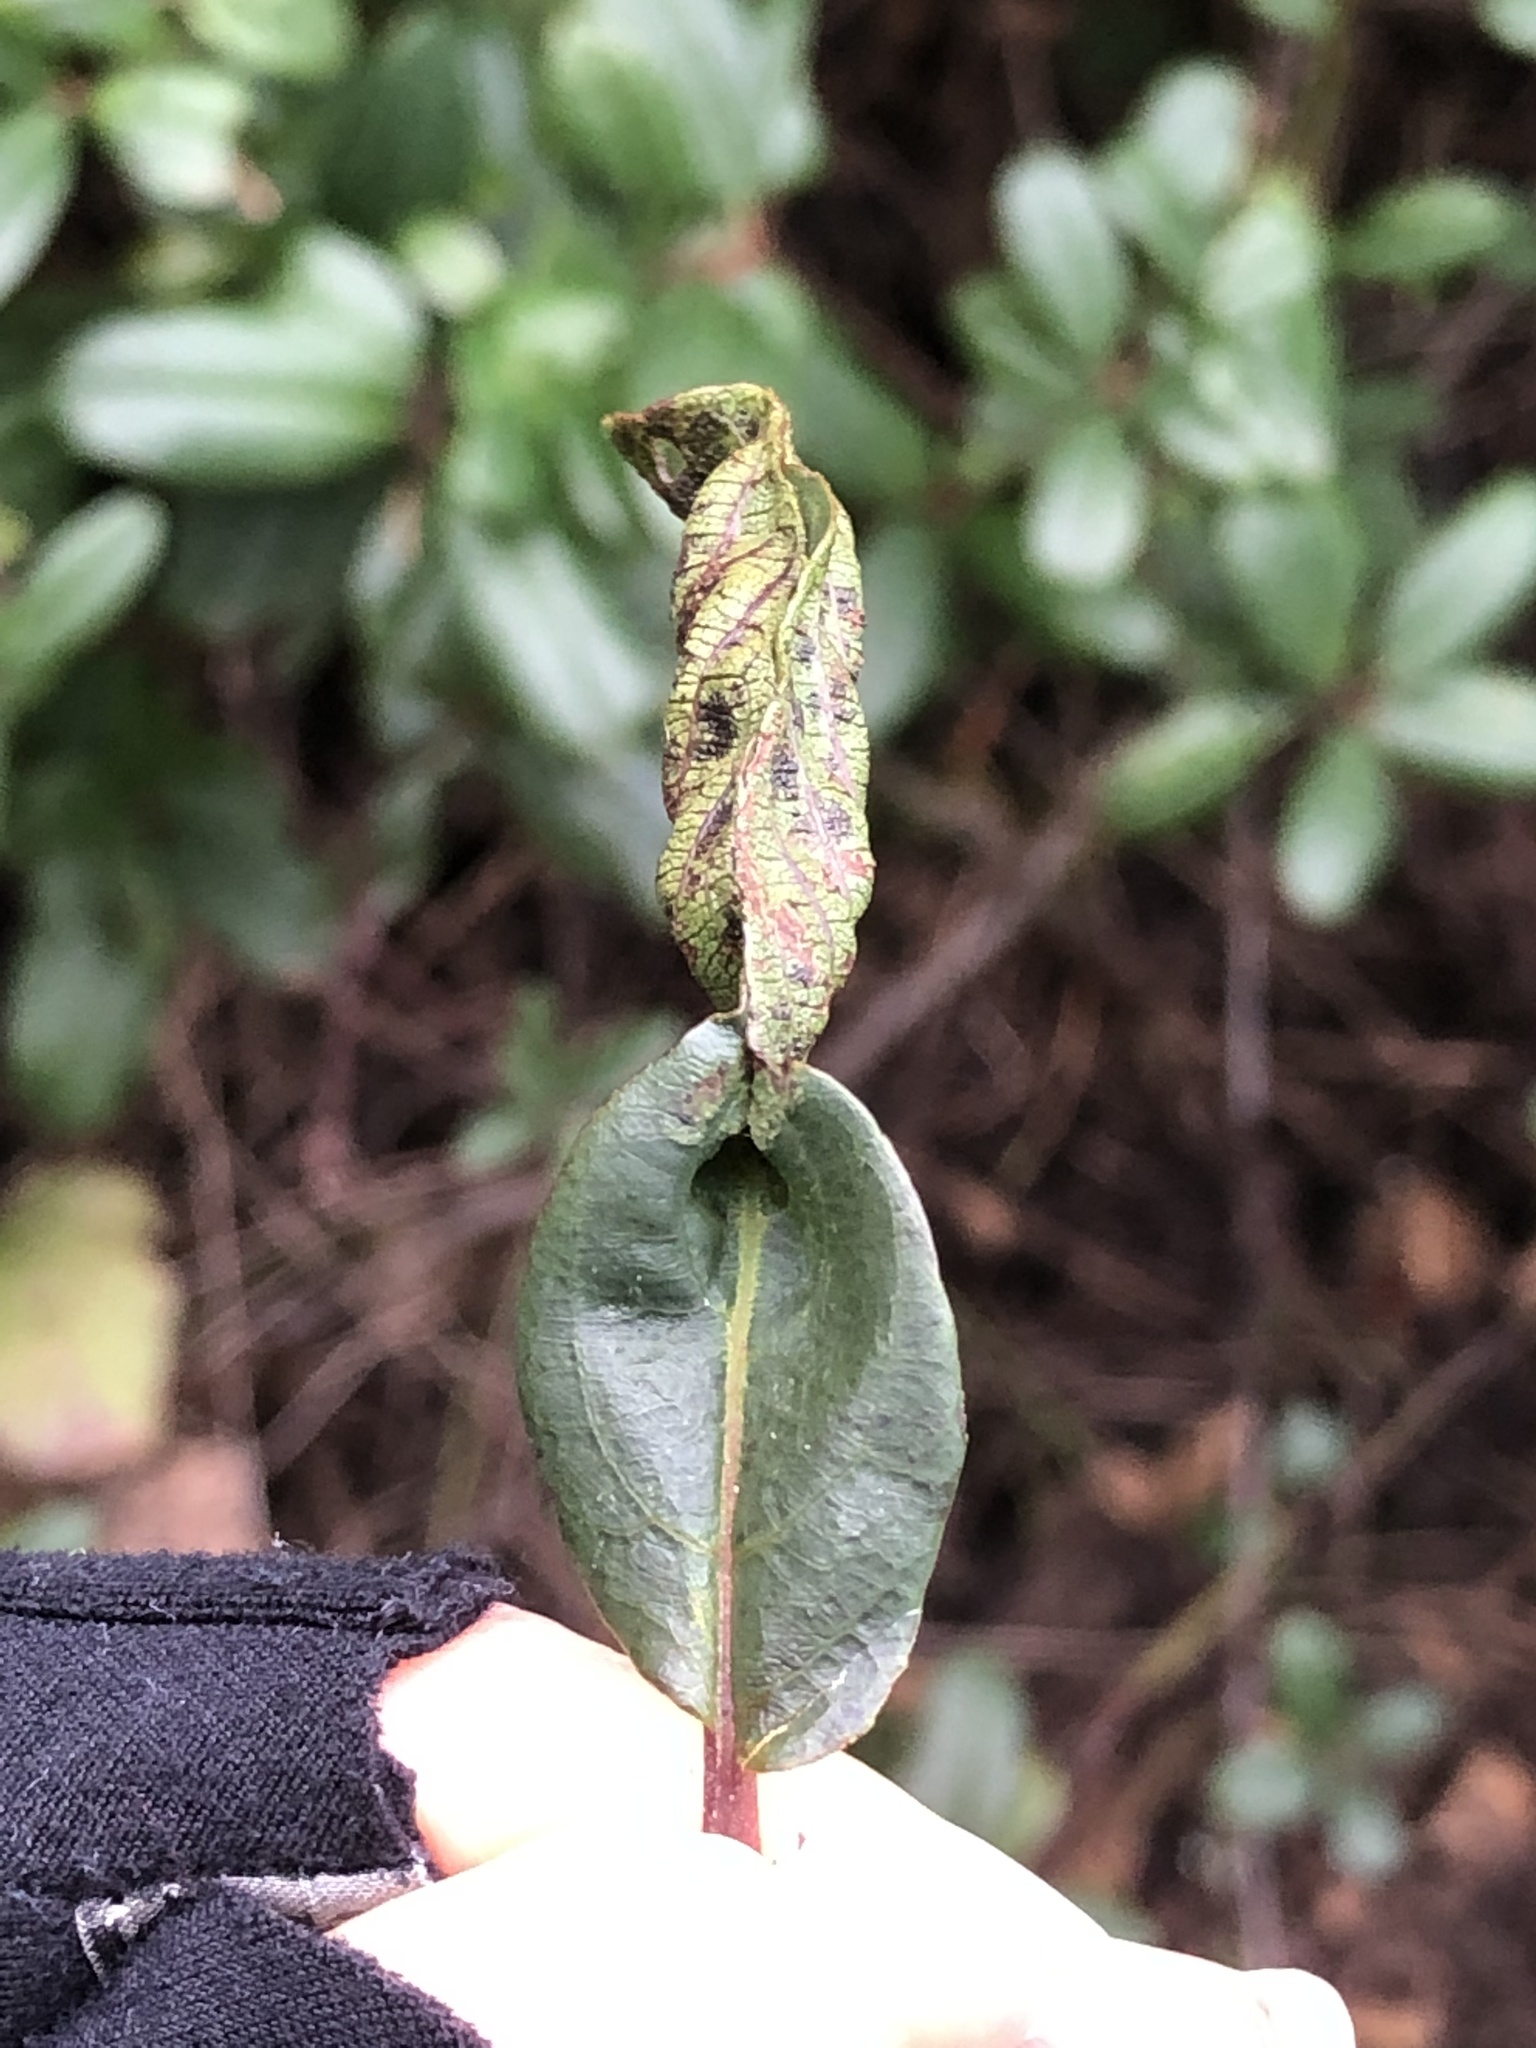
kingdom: Animalia
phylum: Arthropoda
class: Insecta
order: Lepidoptera
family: Cosmopterigidae
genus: Sorhagenia
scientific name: Sorhagenia nimbosus
